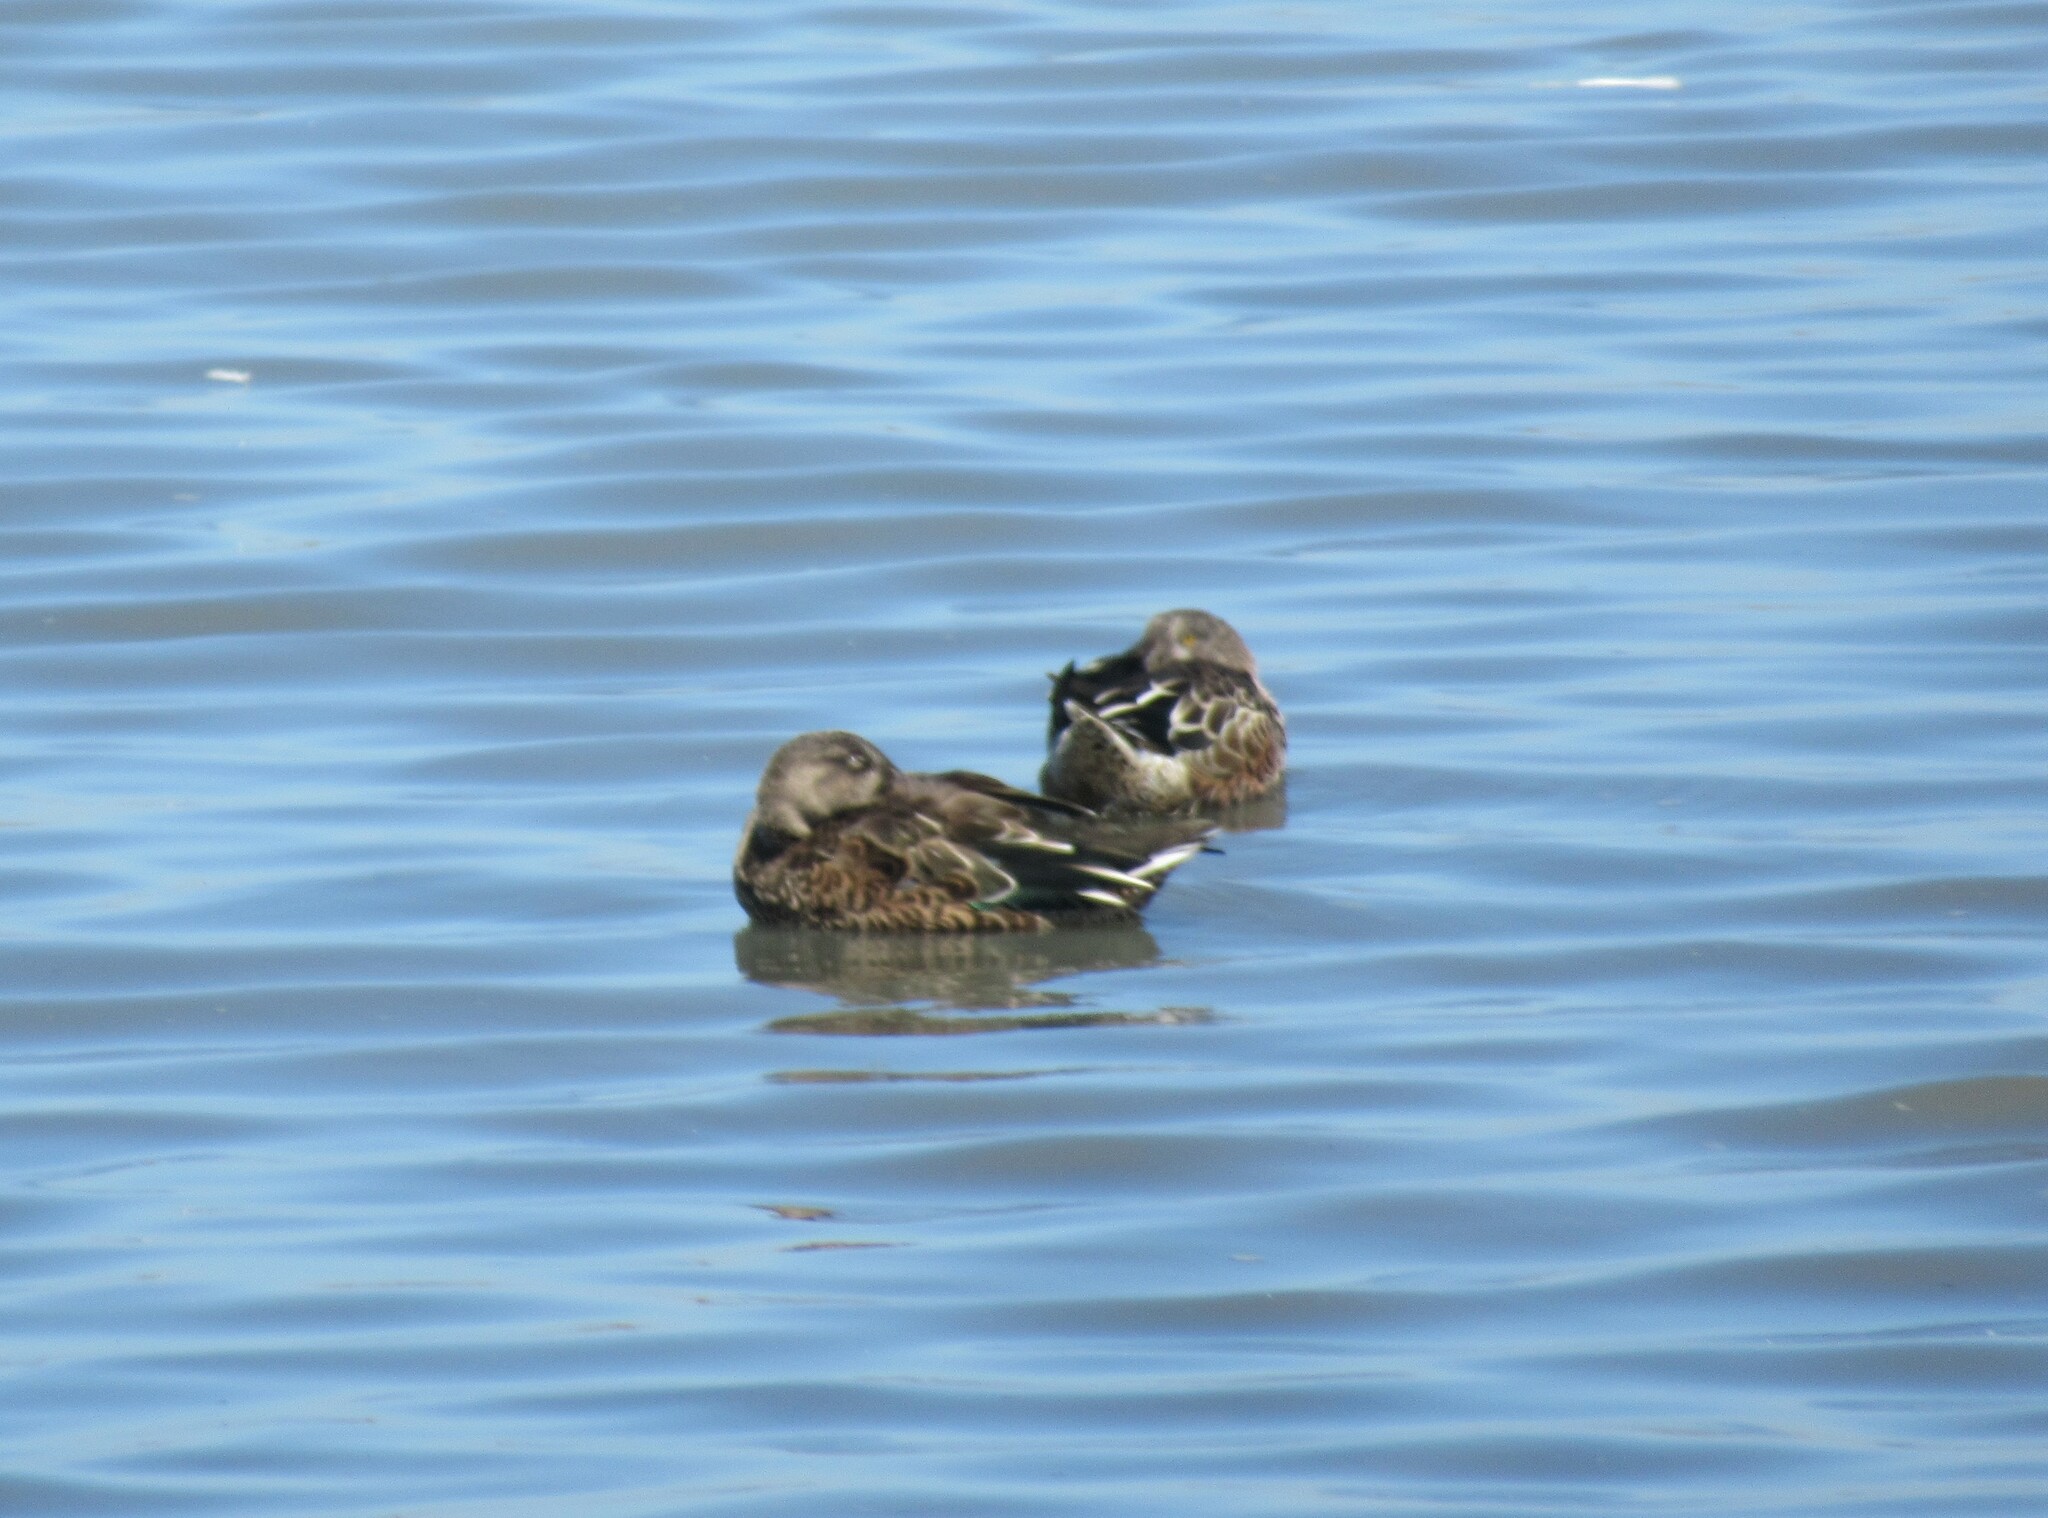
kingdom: Animalia
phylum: Chordata
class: Aves
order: Anseriformes
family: Anatidae
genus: Spatula
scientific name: Spatula clypeata
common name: Northern shoveler
